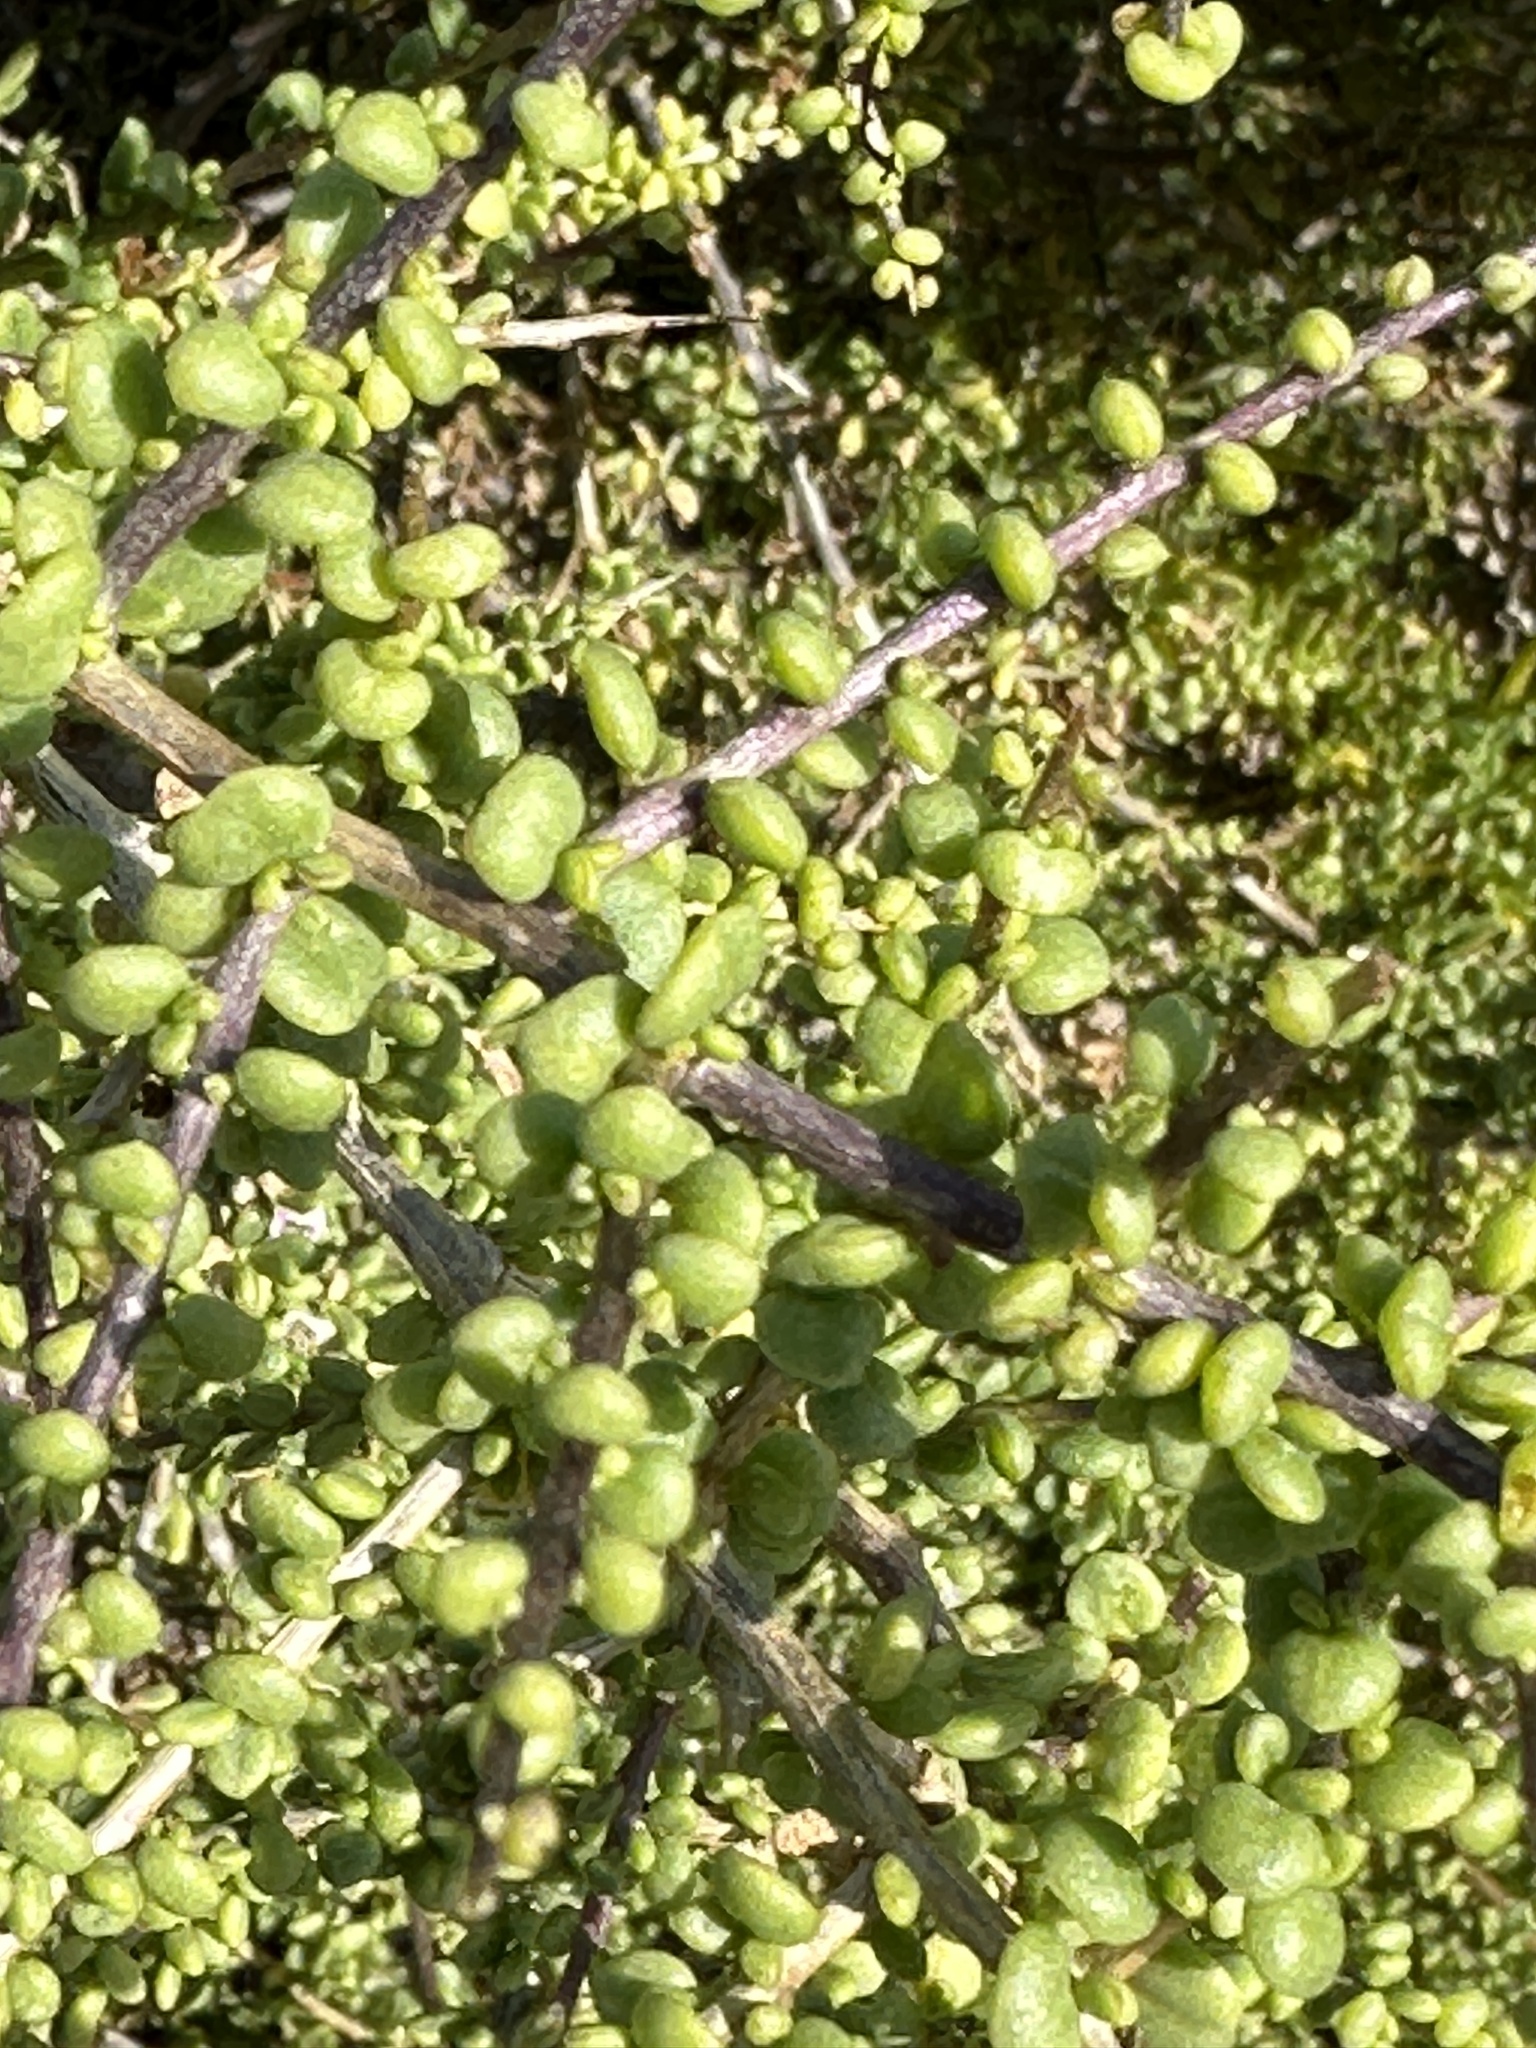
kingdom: Plantae
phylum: Tracheophyta
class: Magnoliopsida
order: Solanales
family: Solanaceae
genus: Lycium
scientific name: Lycium californicum
